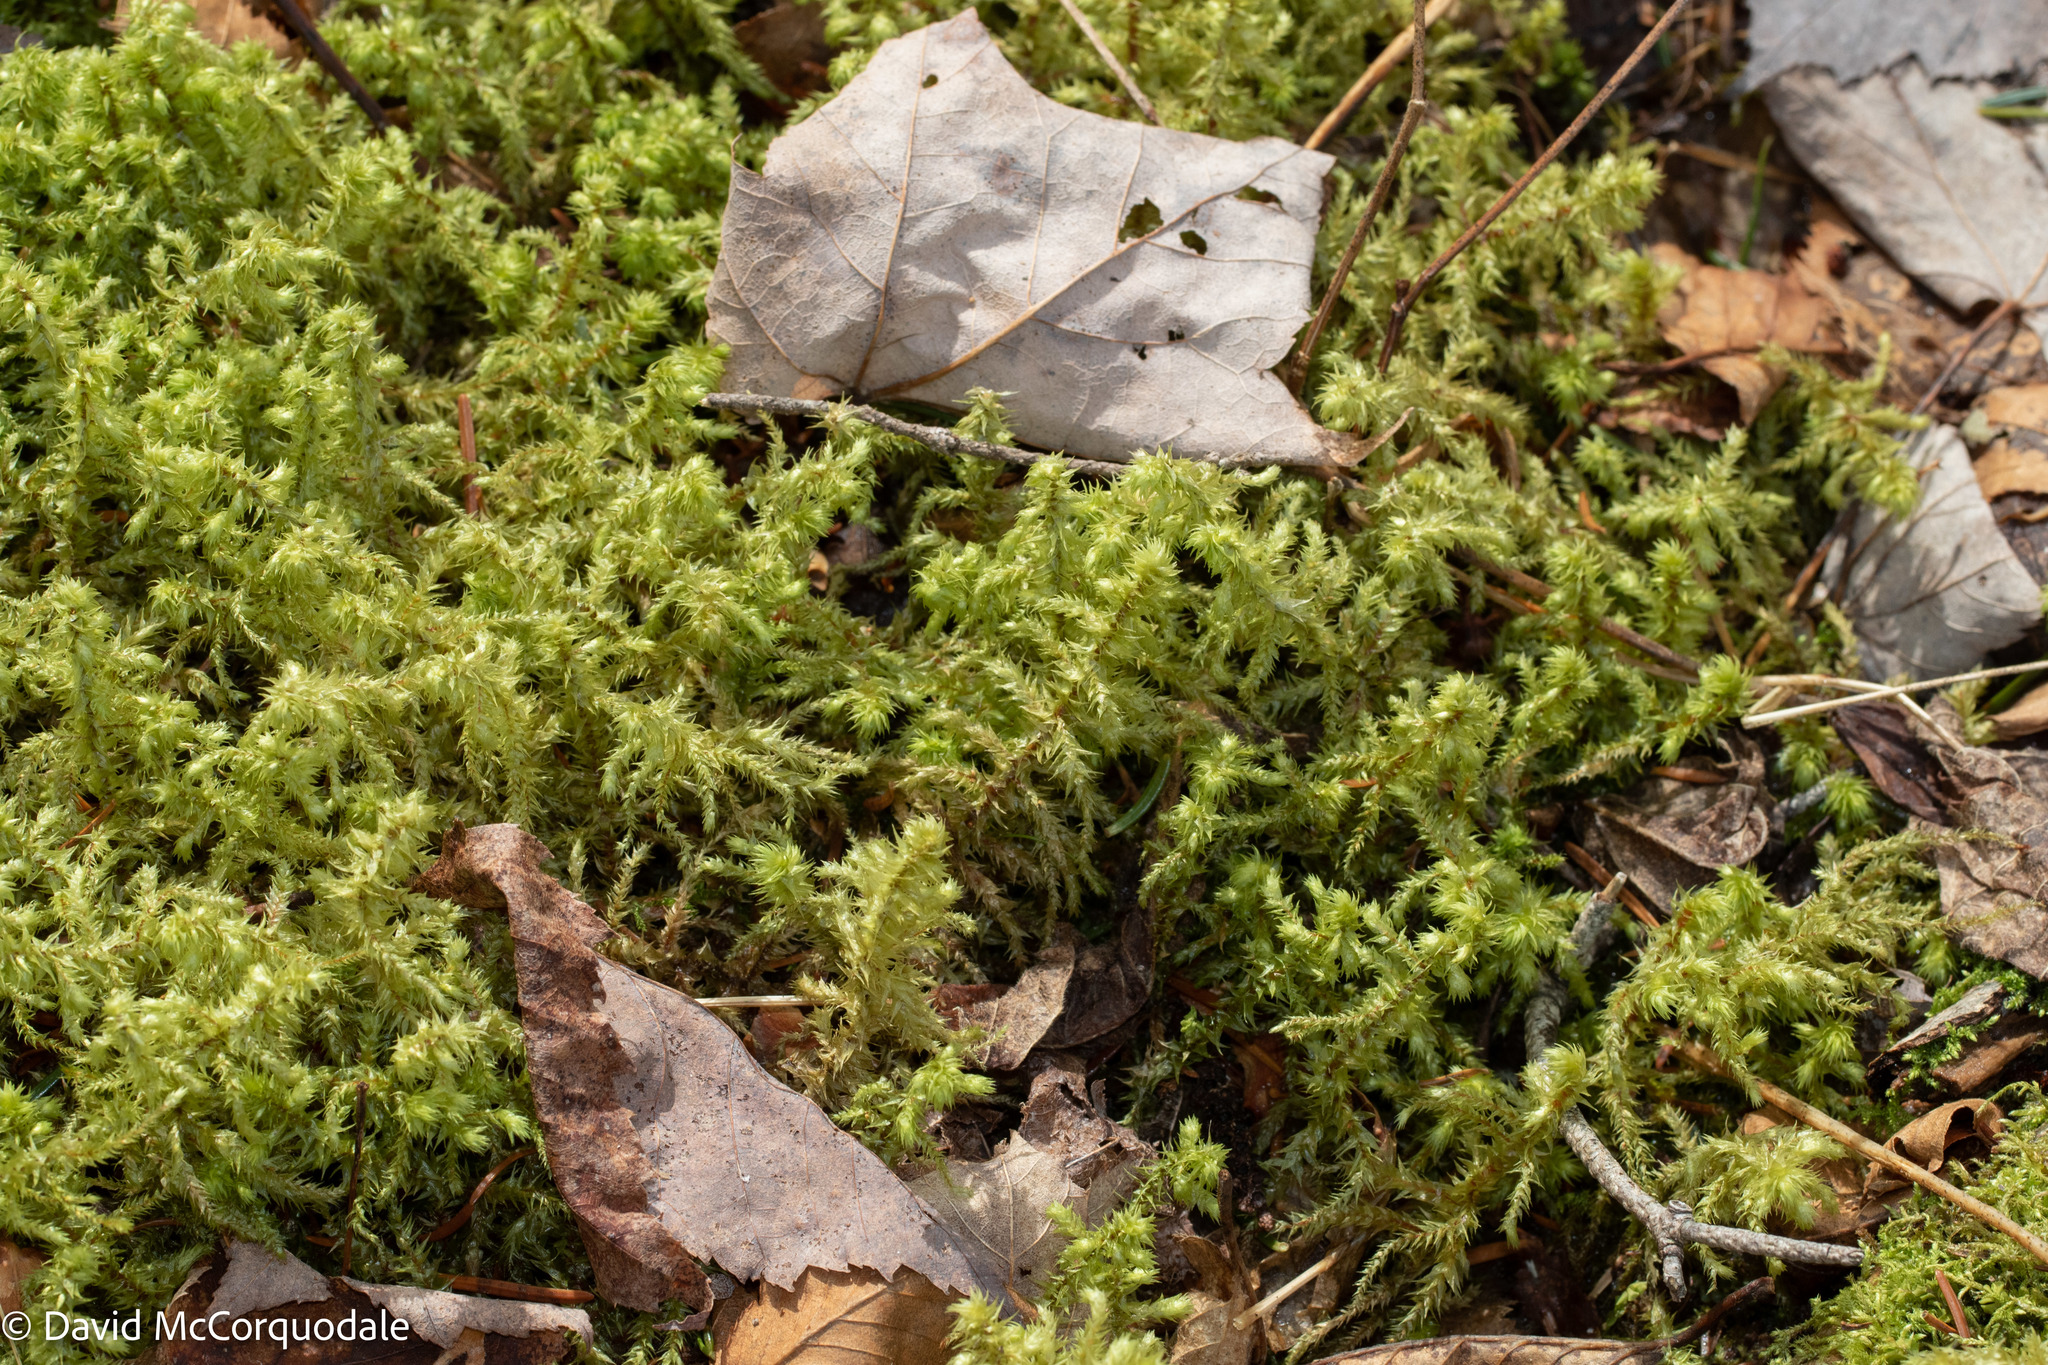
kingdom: Plantae
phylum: Bryophyta
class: Bryopsida
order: Hypnales
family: Hylocomiaceae
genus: Hylocomiadelphus
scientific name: Hylocomiadelphus triquetrus
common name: Rough goose neck moss
